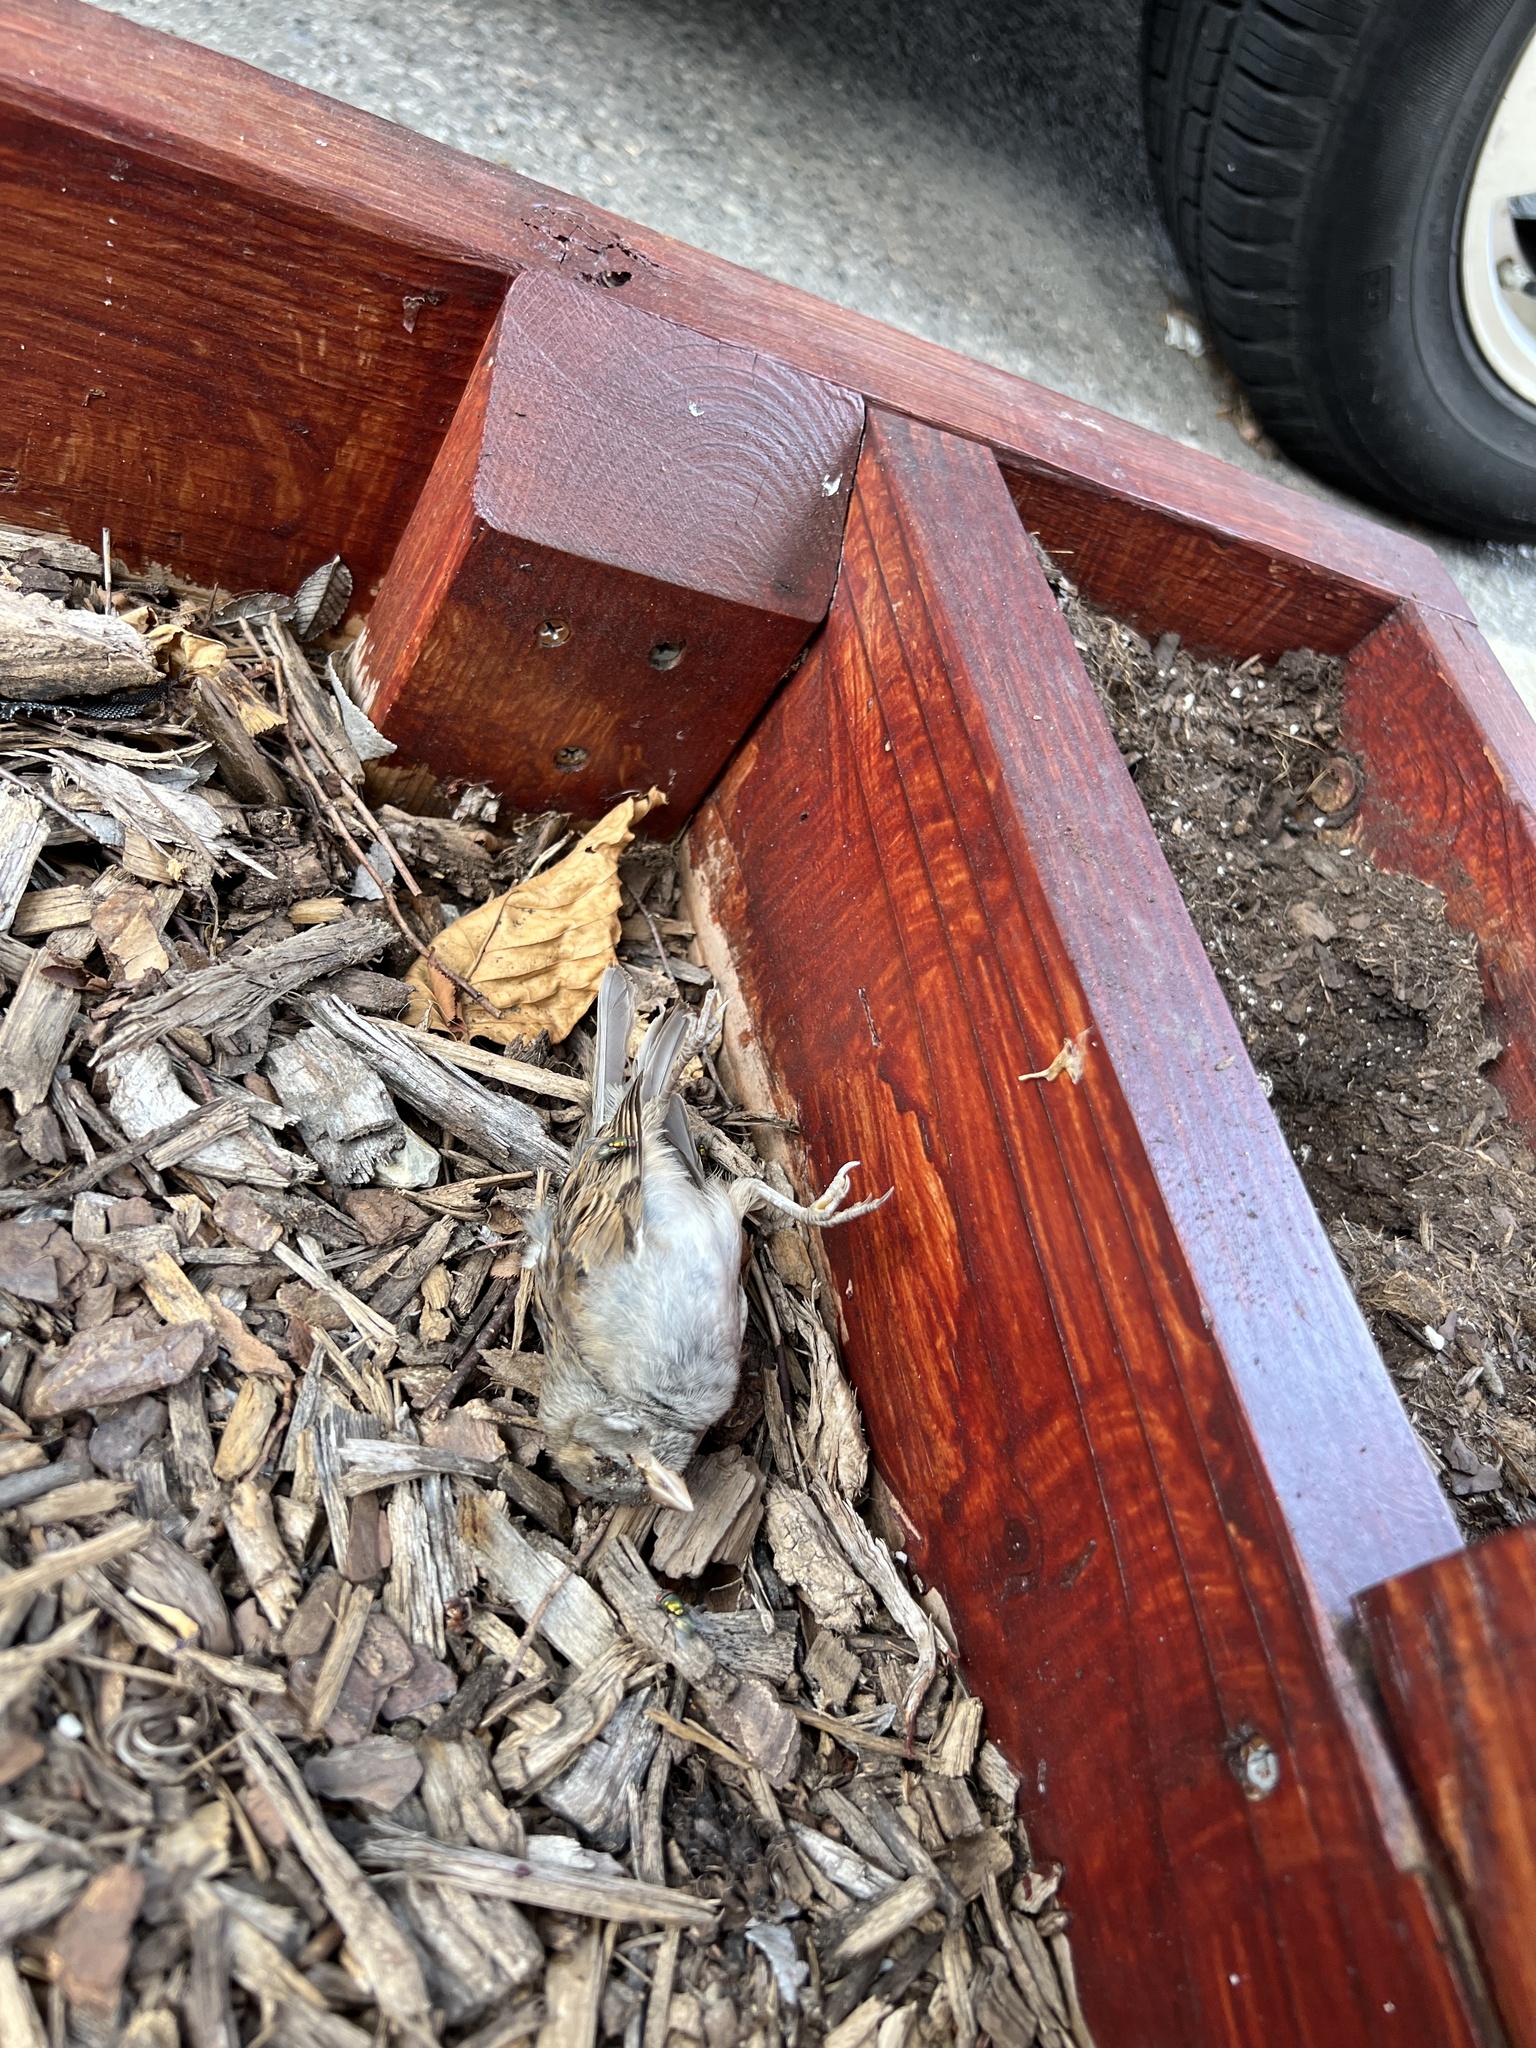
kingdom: Animalia
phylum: Chordata
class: Aves
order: Passeriformes
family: Passeridae
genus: Passer
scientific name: Passer domesticus
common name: House sparrow
